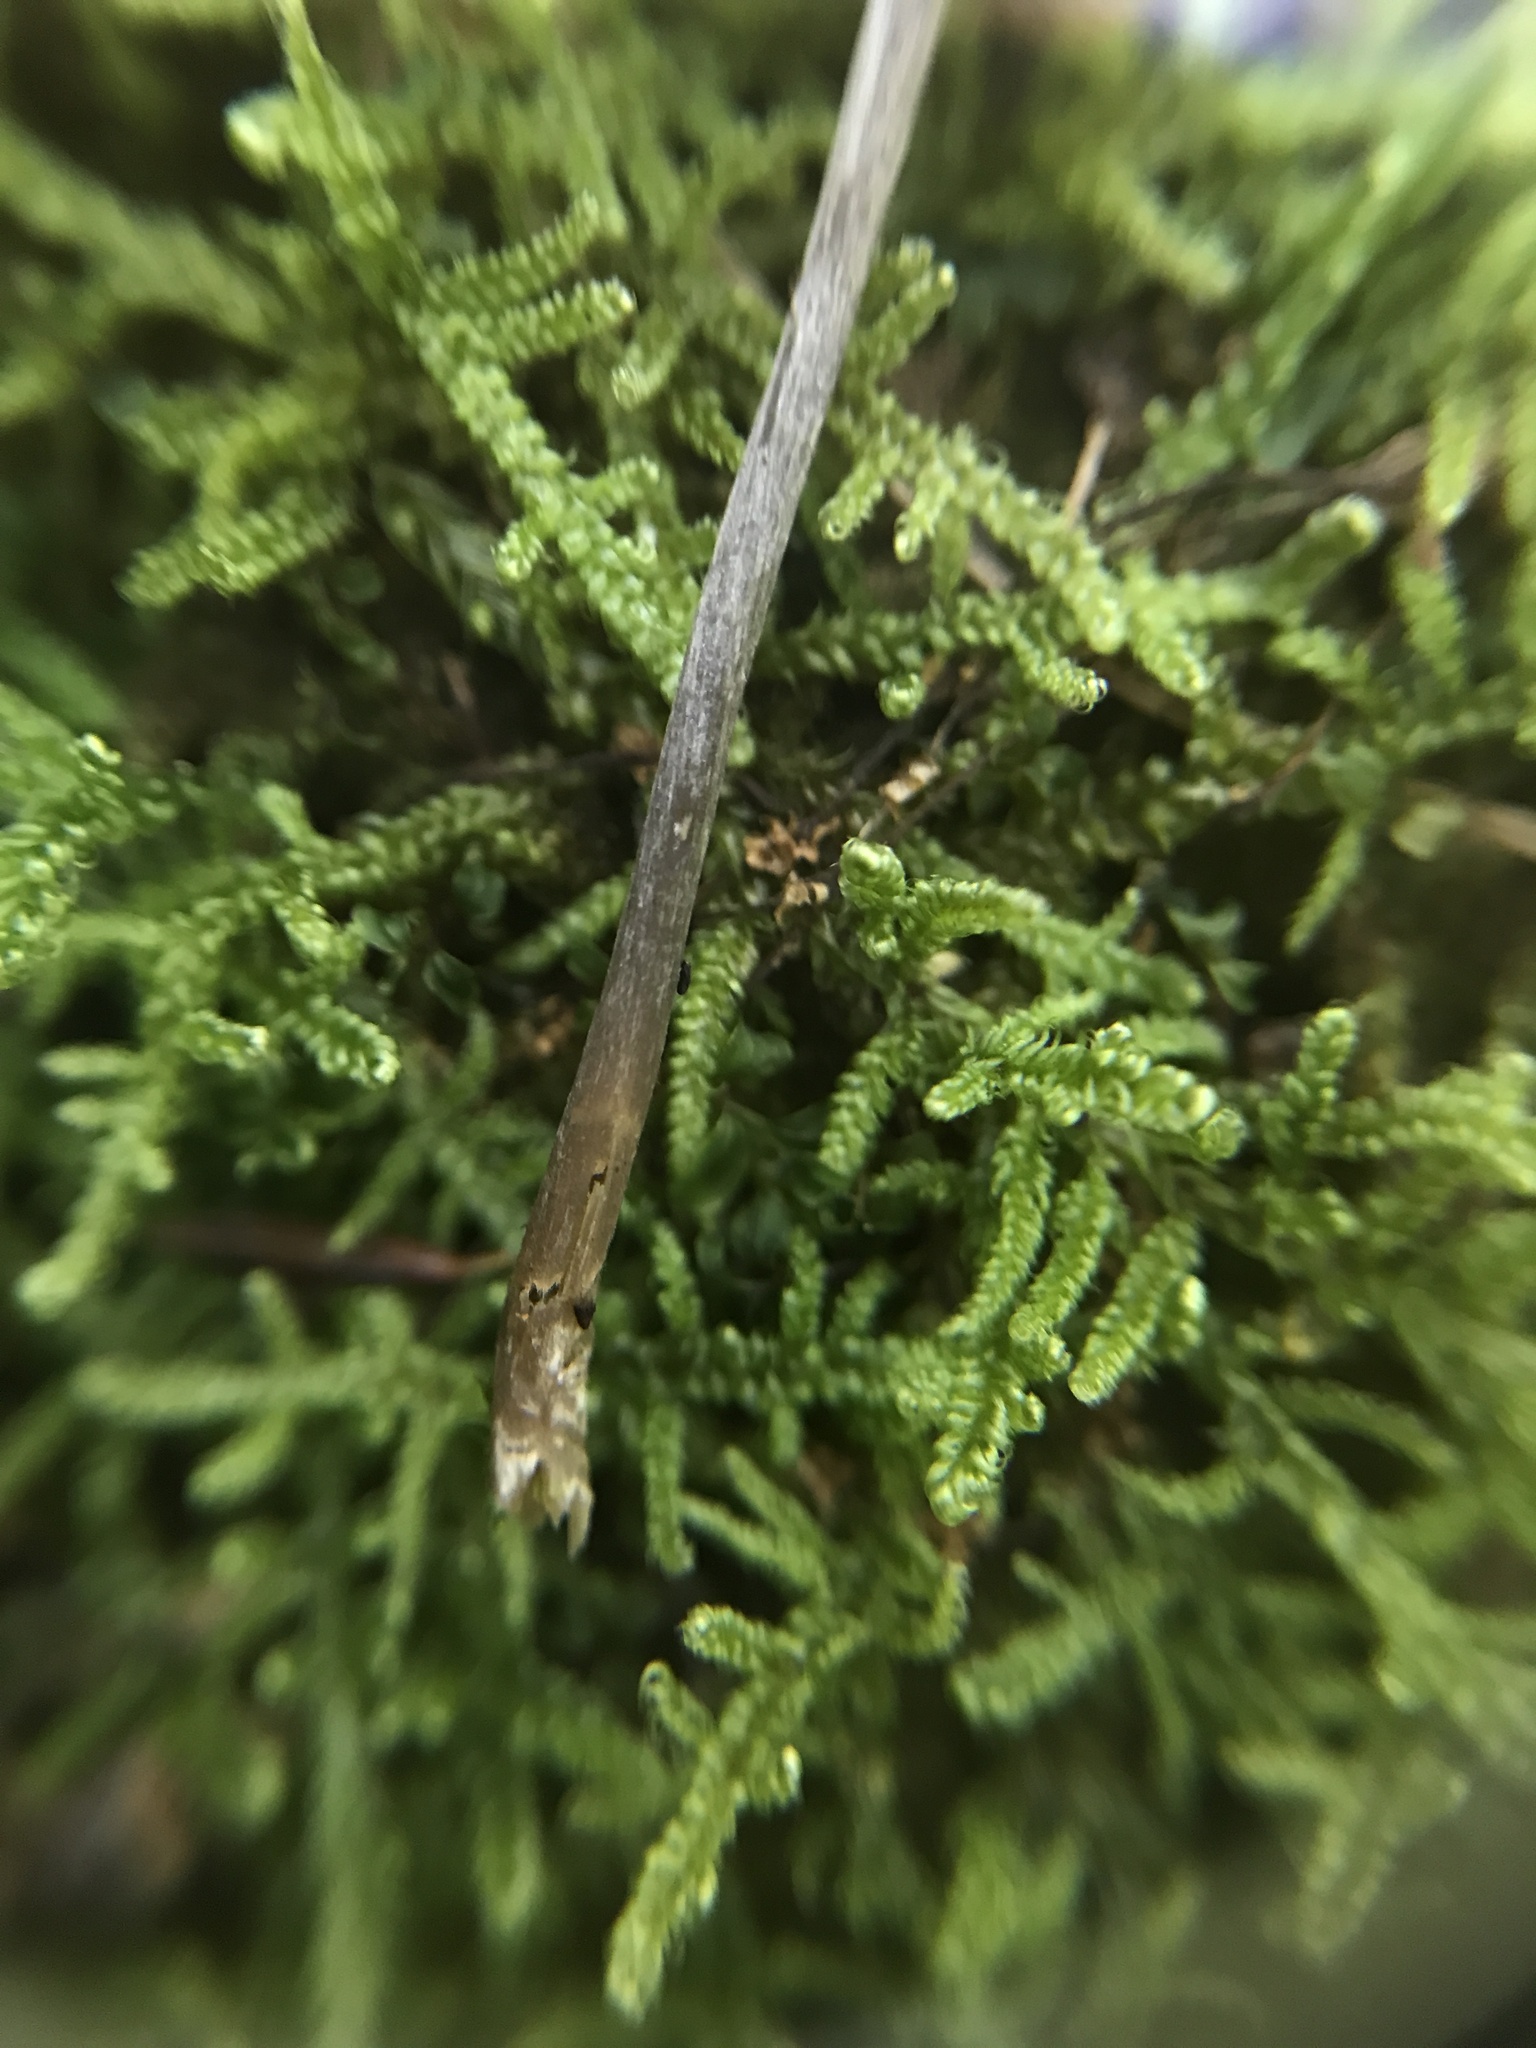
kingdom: Fungi
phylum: Basidiomycota
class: Agaricomycetes
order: Agaricales
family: Entolomataceae
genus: Entoloma
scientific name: Entoloma pulchripes
